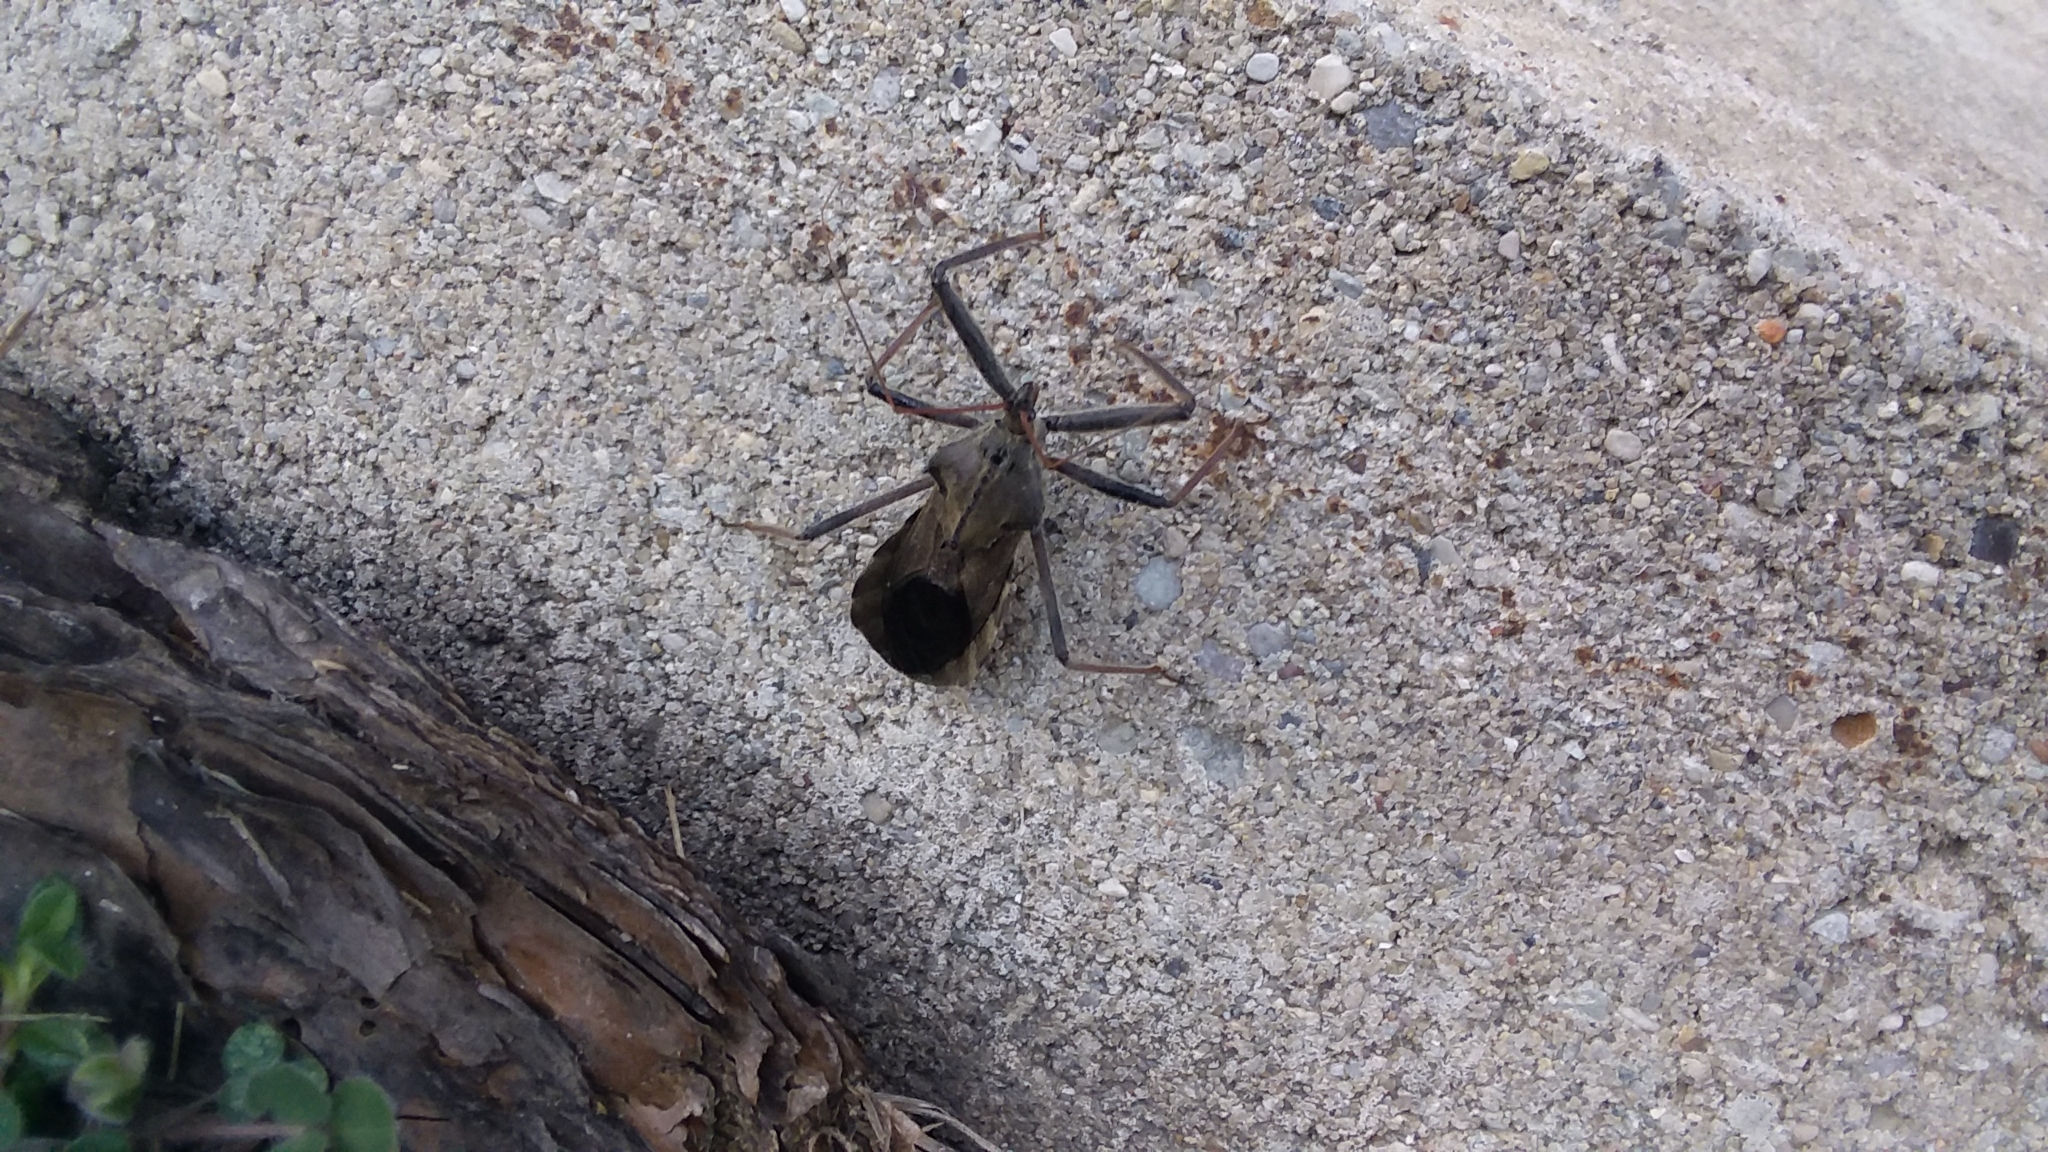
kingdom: Animalia
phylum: Arthropoda
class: Insecta
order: Hemiptera
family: Reduviidae
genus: Arilus
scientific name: Arilus cristatus
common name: North american wheel bug
